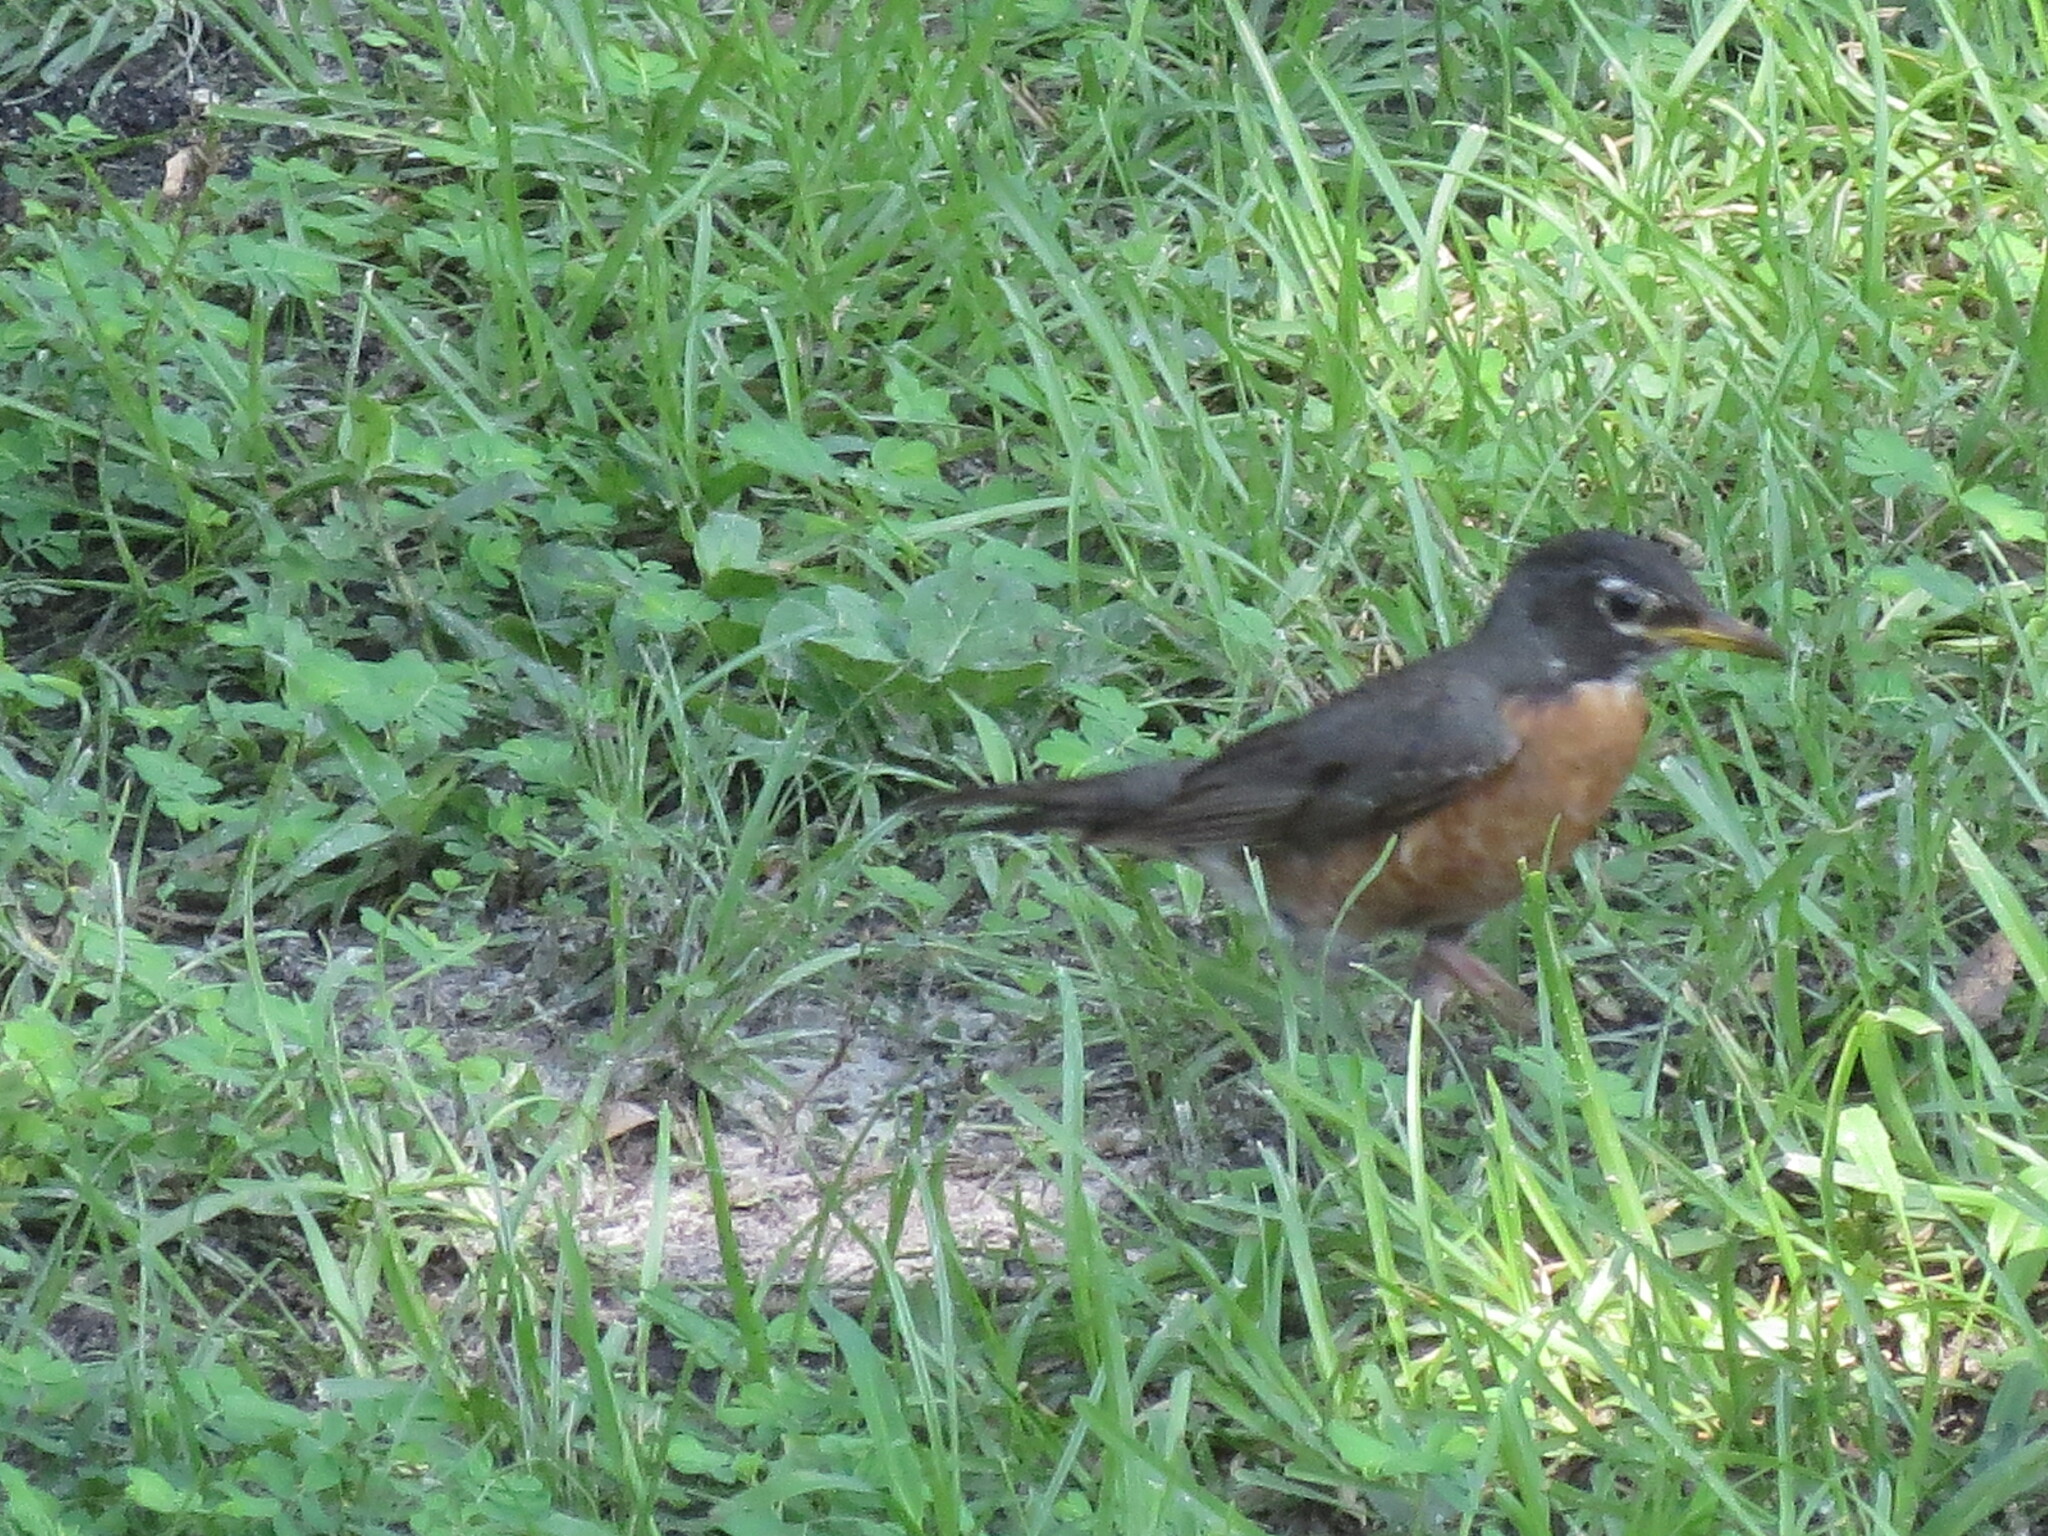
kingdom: Animalia
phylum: Chordata
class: Aves
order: Passeriformes
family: Turdidae
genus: Turdus
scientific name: Turdus migratorius
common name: American robin
